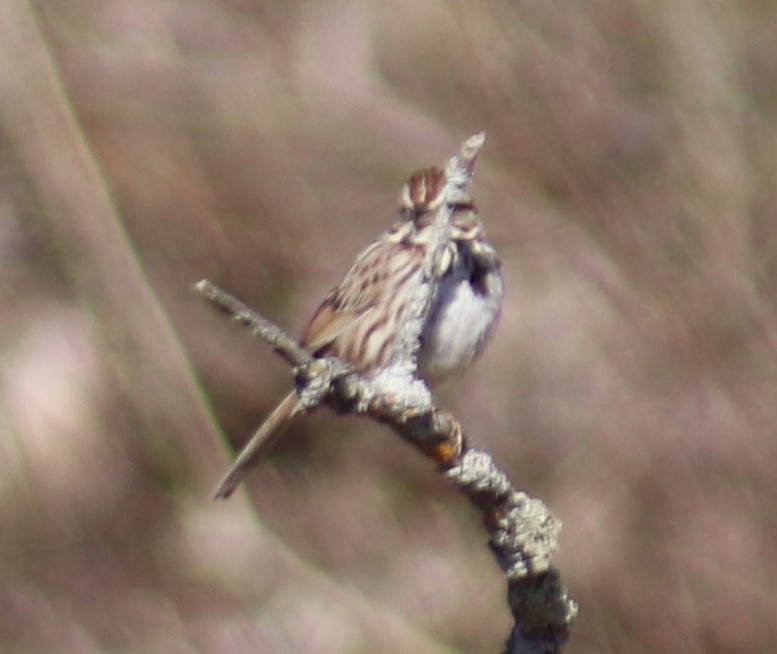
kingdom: Animalia
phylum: Chordata
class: Aves
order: Passeriformes
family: Passerellidae
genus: Melospiza
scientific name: Melospiza melodia
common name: Song sparrow
